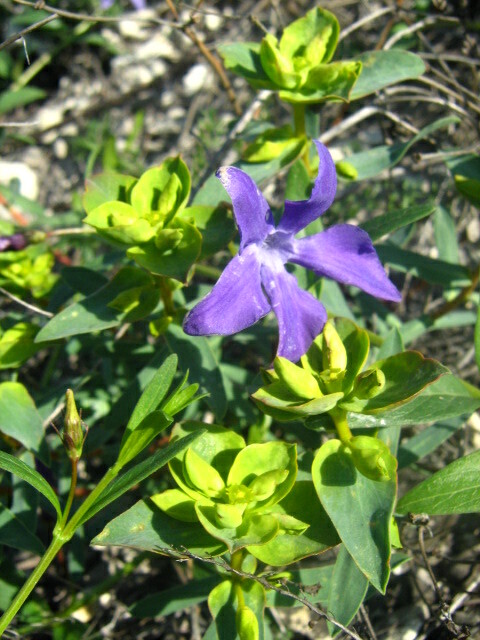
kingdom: Plantae
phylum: Tracheophyta
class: Magnoliopsida
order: Gentianales
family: Apocynaceae
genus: Vinca
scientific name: Vinca herbacea
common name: Herbaceous periwinkle
